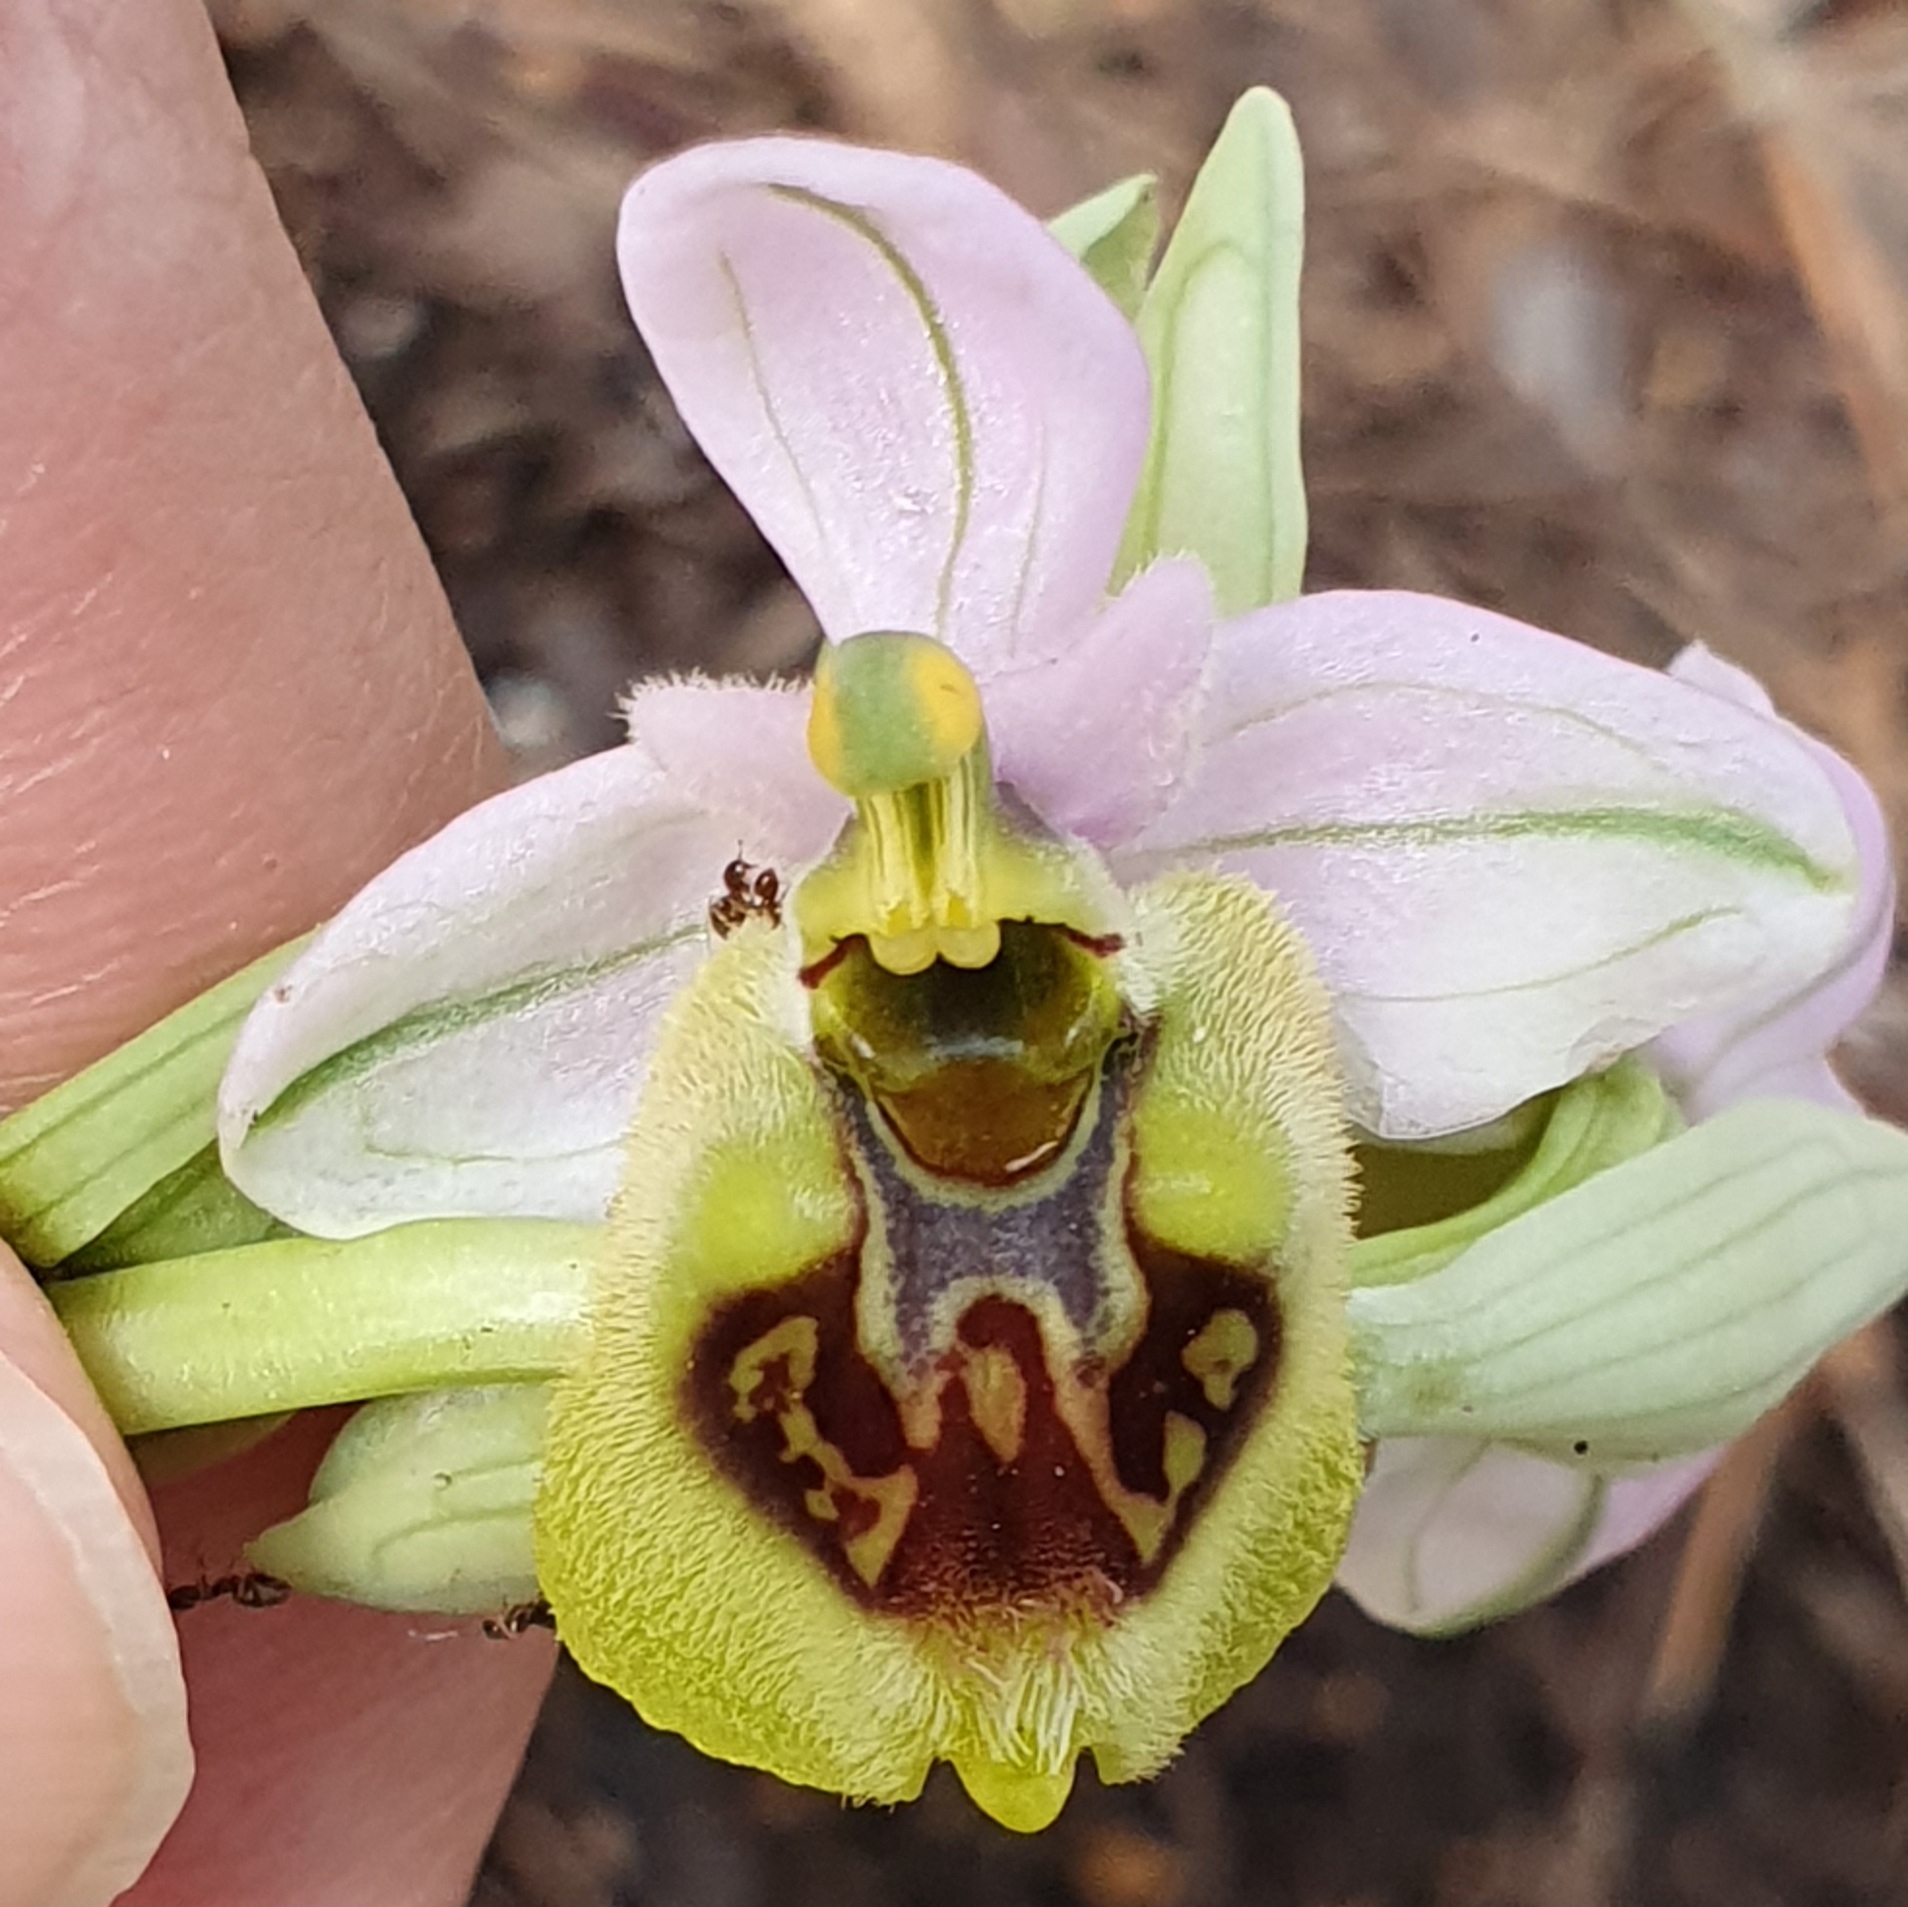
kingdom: Plantae
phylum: Tracheophyta
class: Liliopsida
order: Asparagales
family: Orchidaceae
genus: Ophrys
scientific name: Ophrys tenthredinifera
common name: Sawfly orchid
